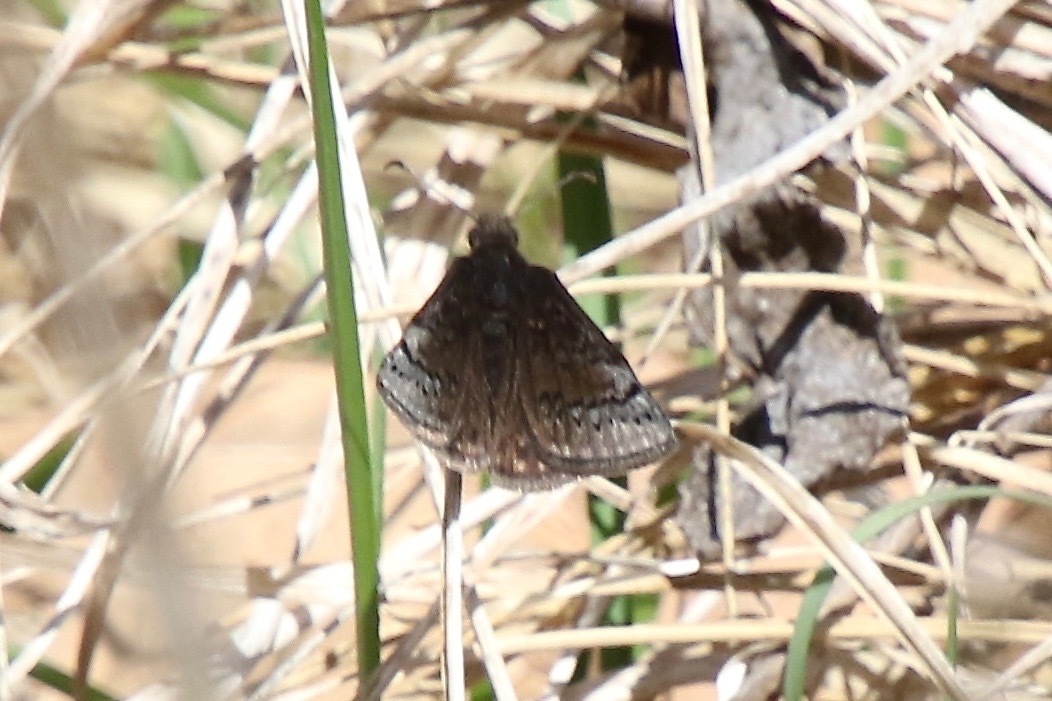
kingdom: Animalia
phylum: Arthropoda
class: Insecta
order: Lepidoptera
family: Hesperiidae
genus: Erynnis
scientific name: Erynnis brizo
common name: Sleepy duskywing
